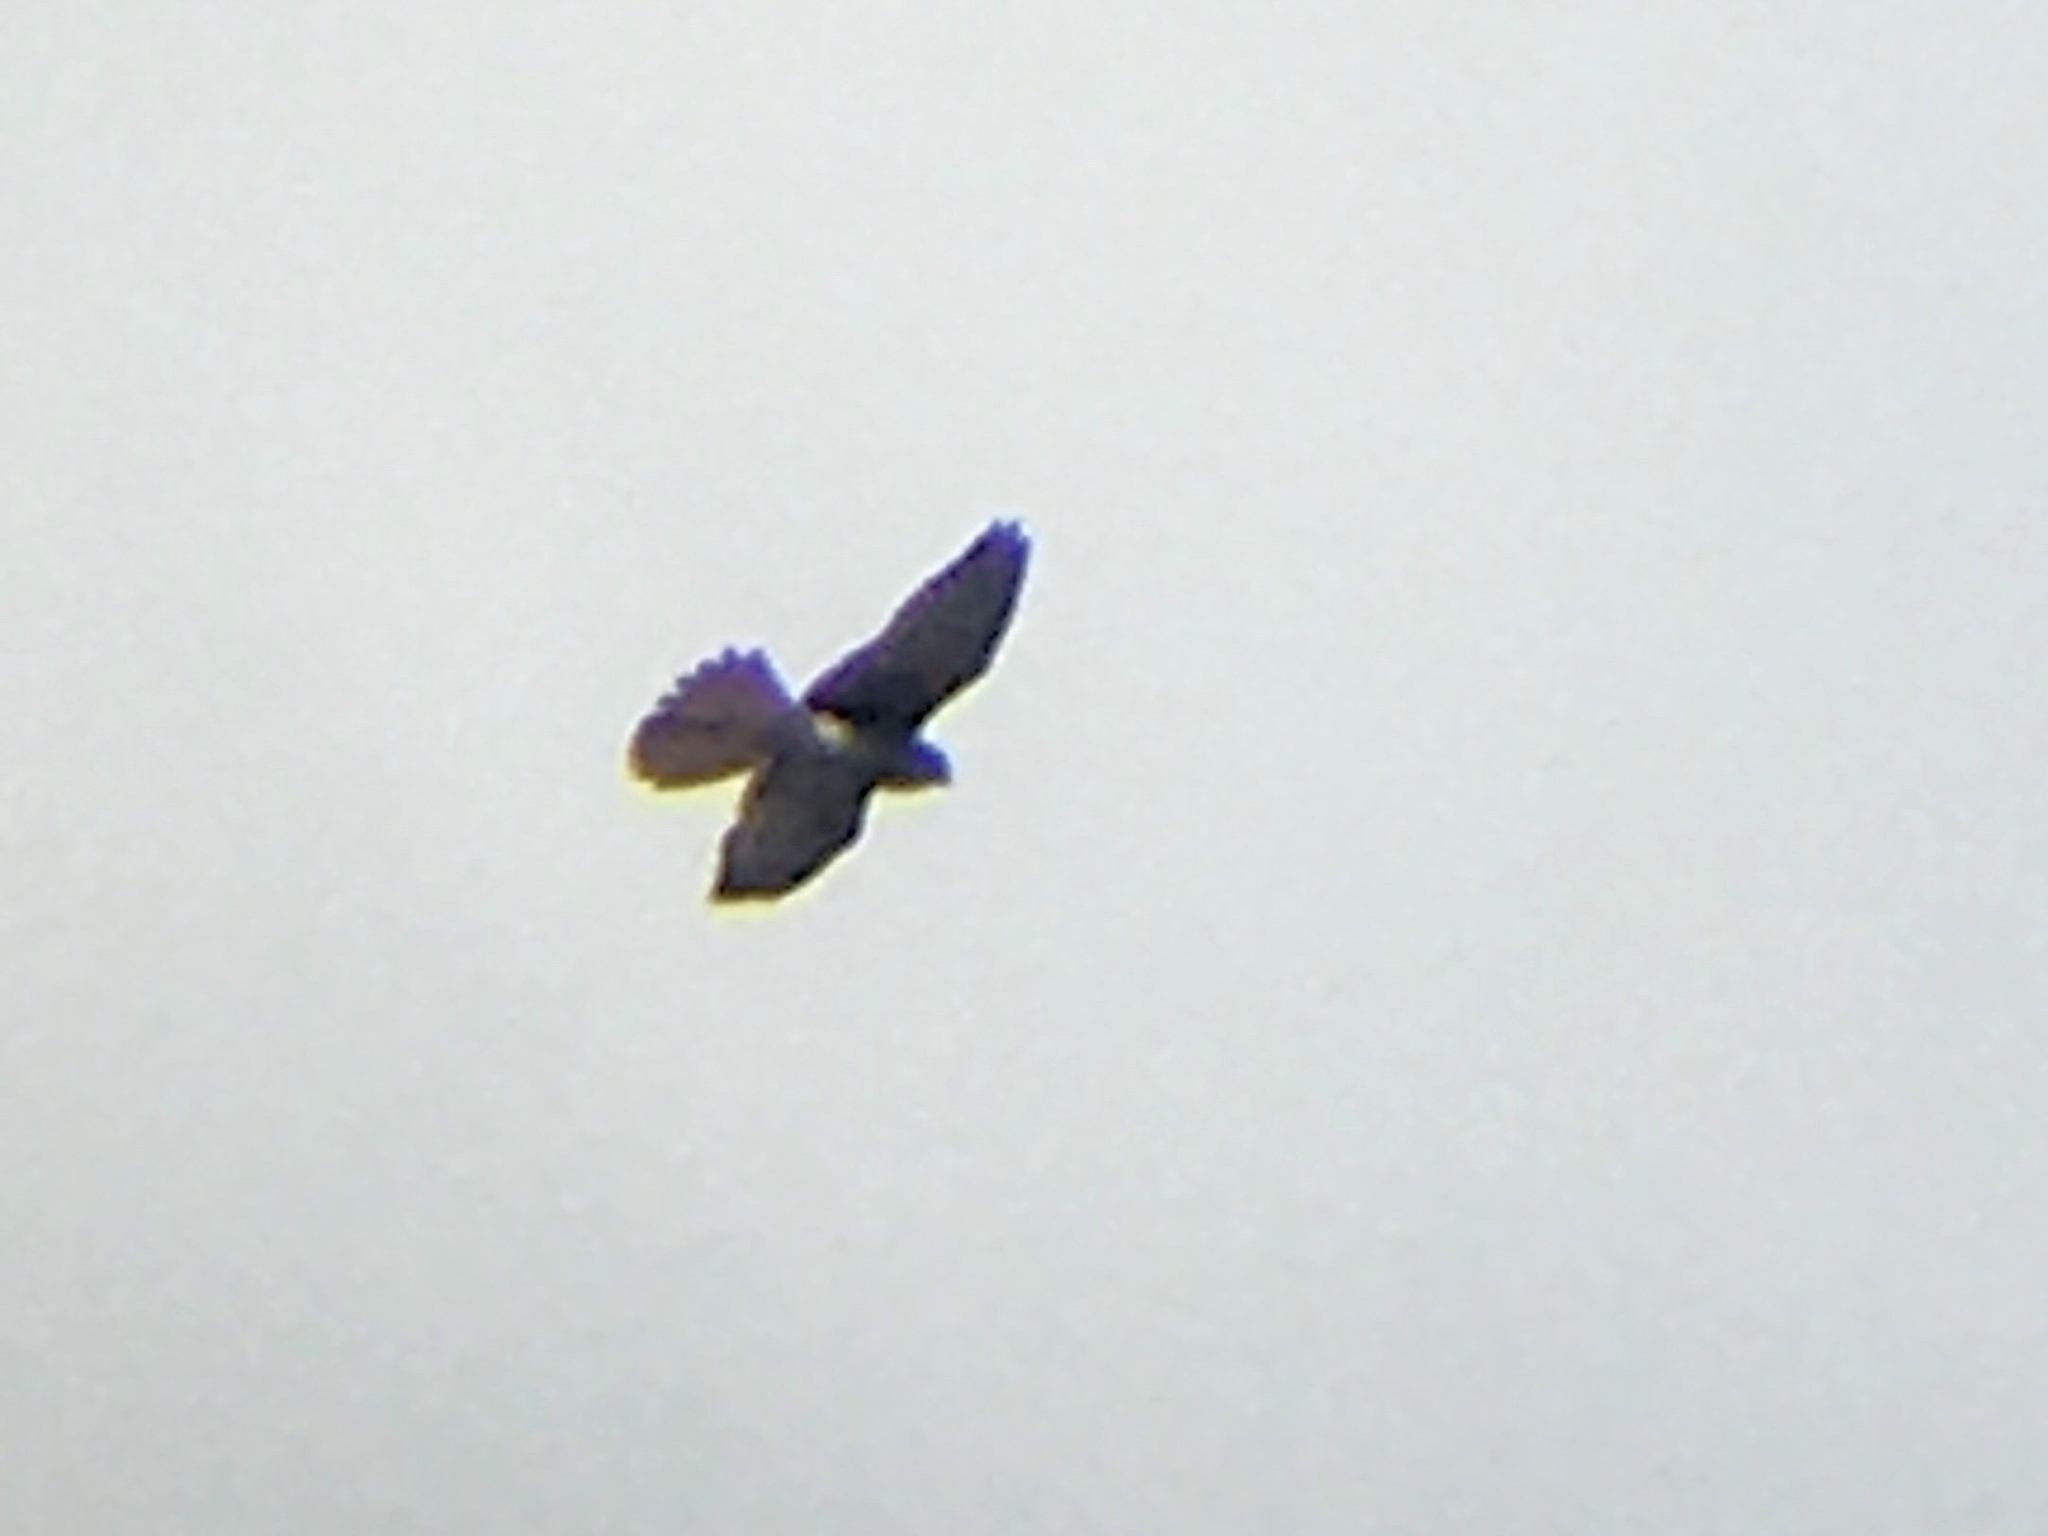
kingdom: Animalia
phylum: Chordata
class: Aves
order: Falconiformes
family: Falconidae
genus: Falco
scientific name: Falco sparverius
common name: American kestrel
